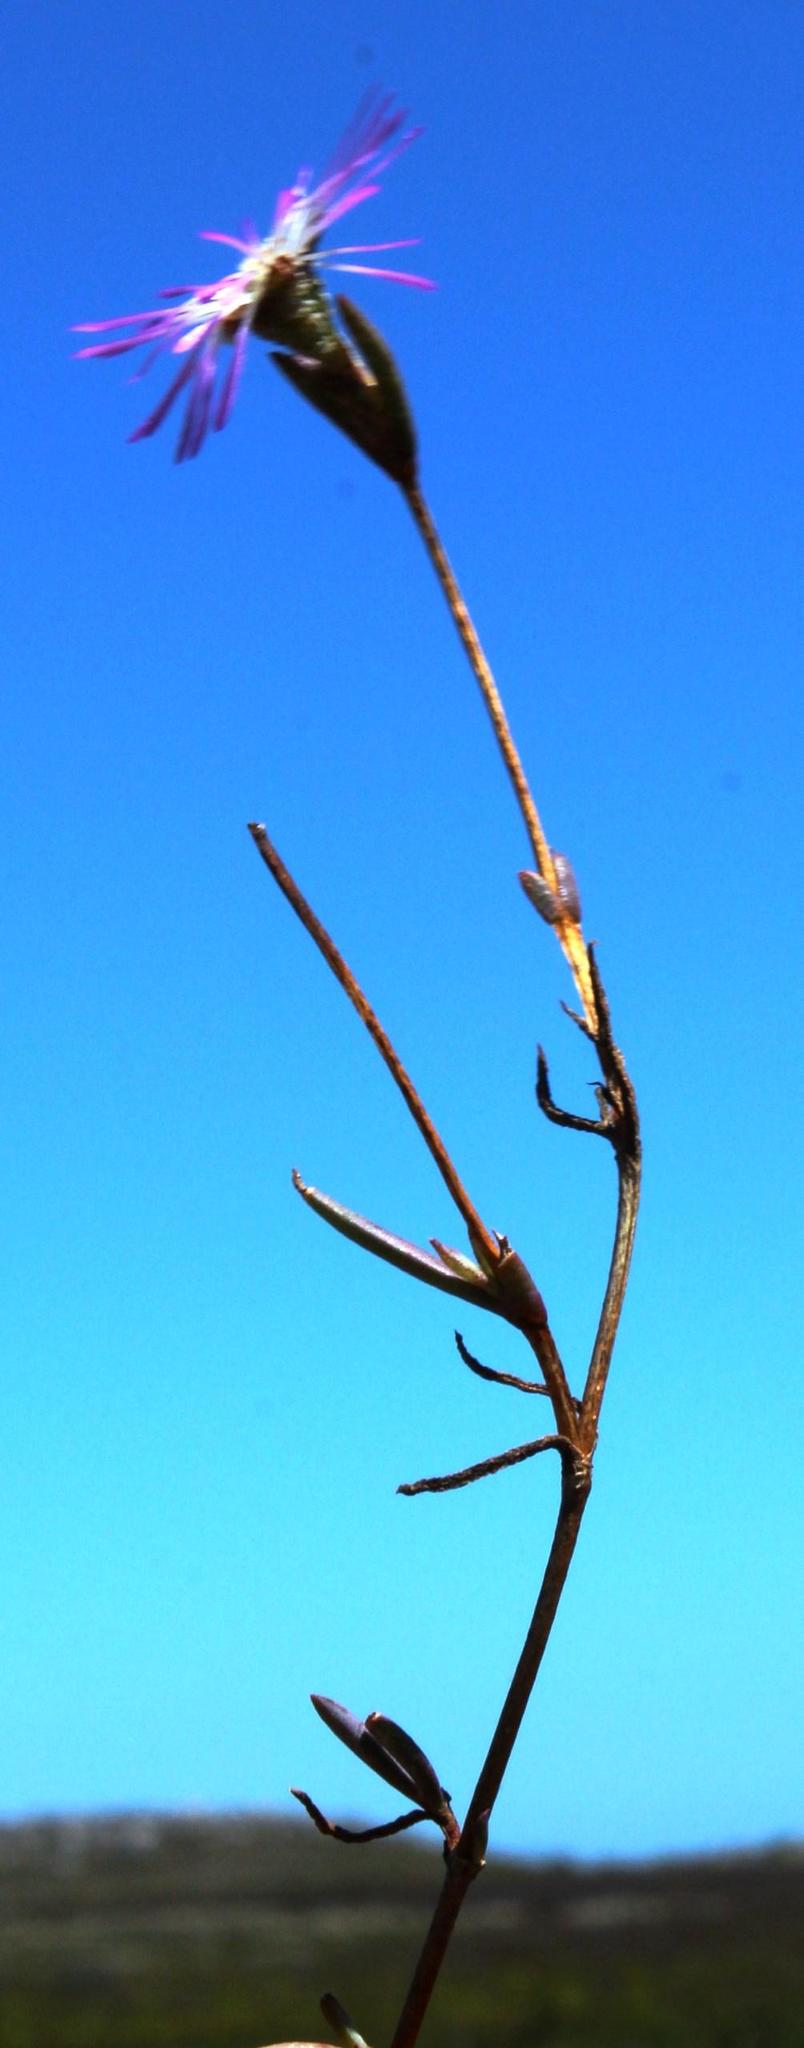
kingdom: Plantae
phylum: Tracheophyta
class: Magnoliopsida
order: Caryophyllales
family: Aizoaceae
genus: Erepsia
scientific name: Erepsia aspera
